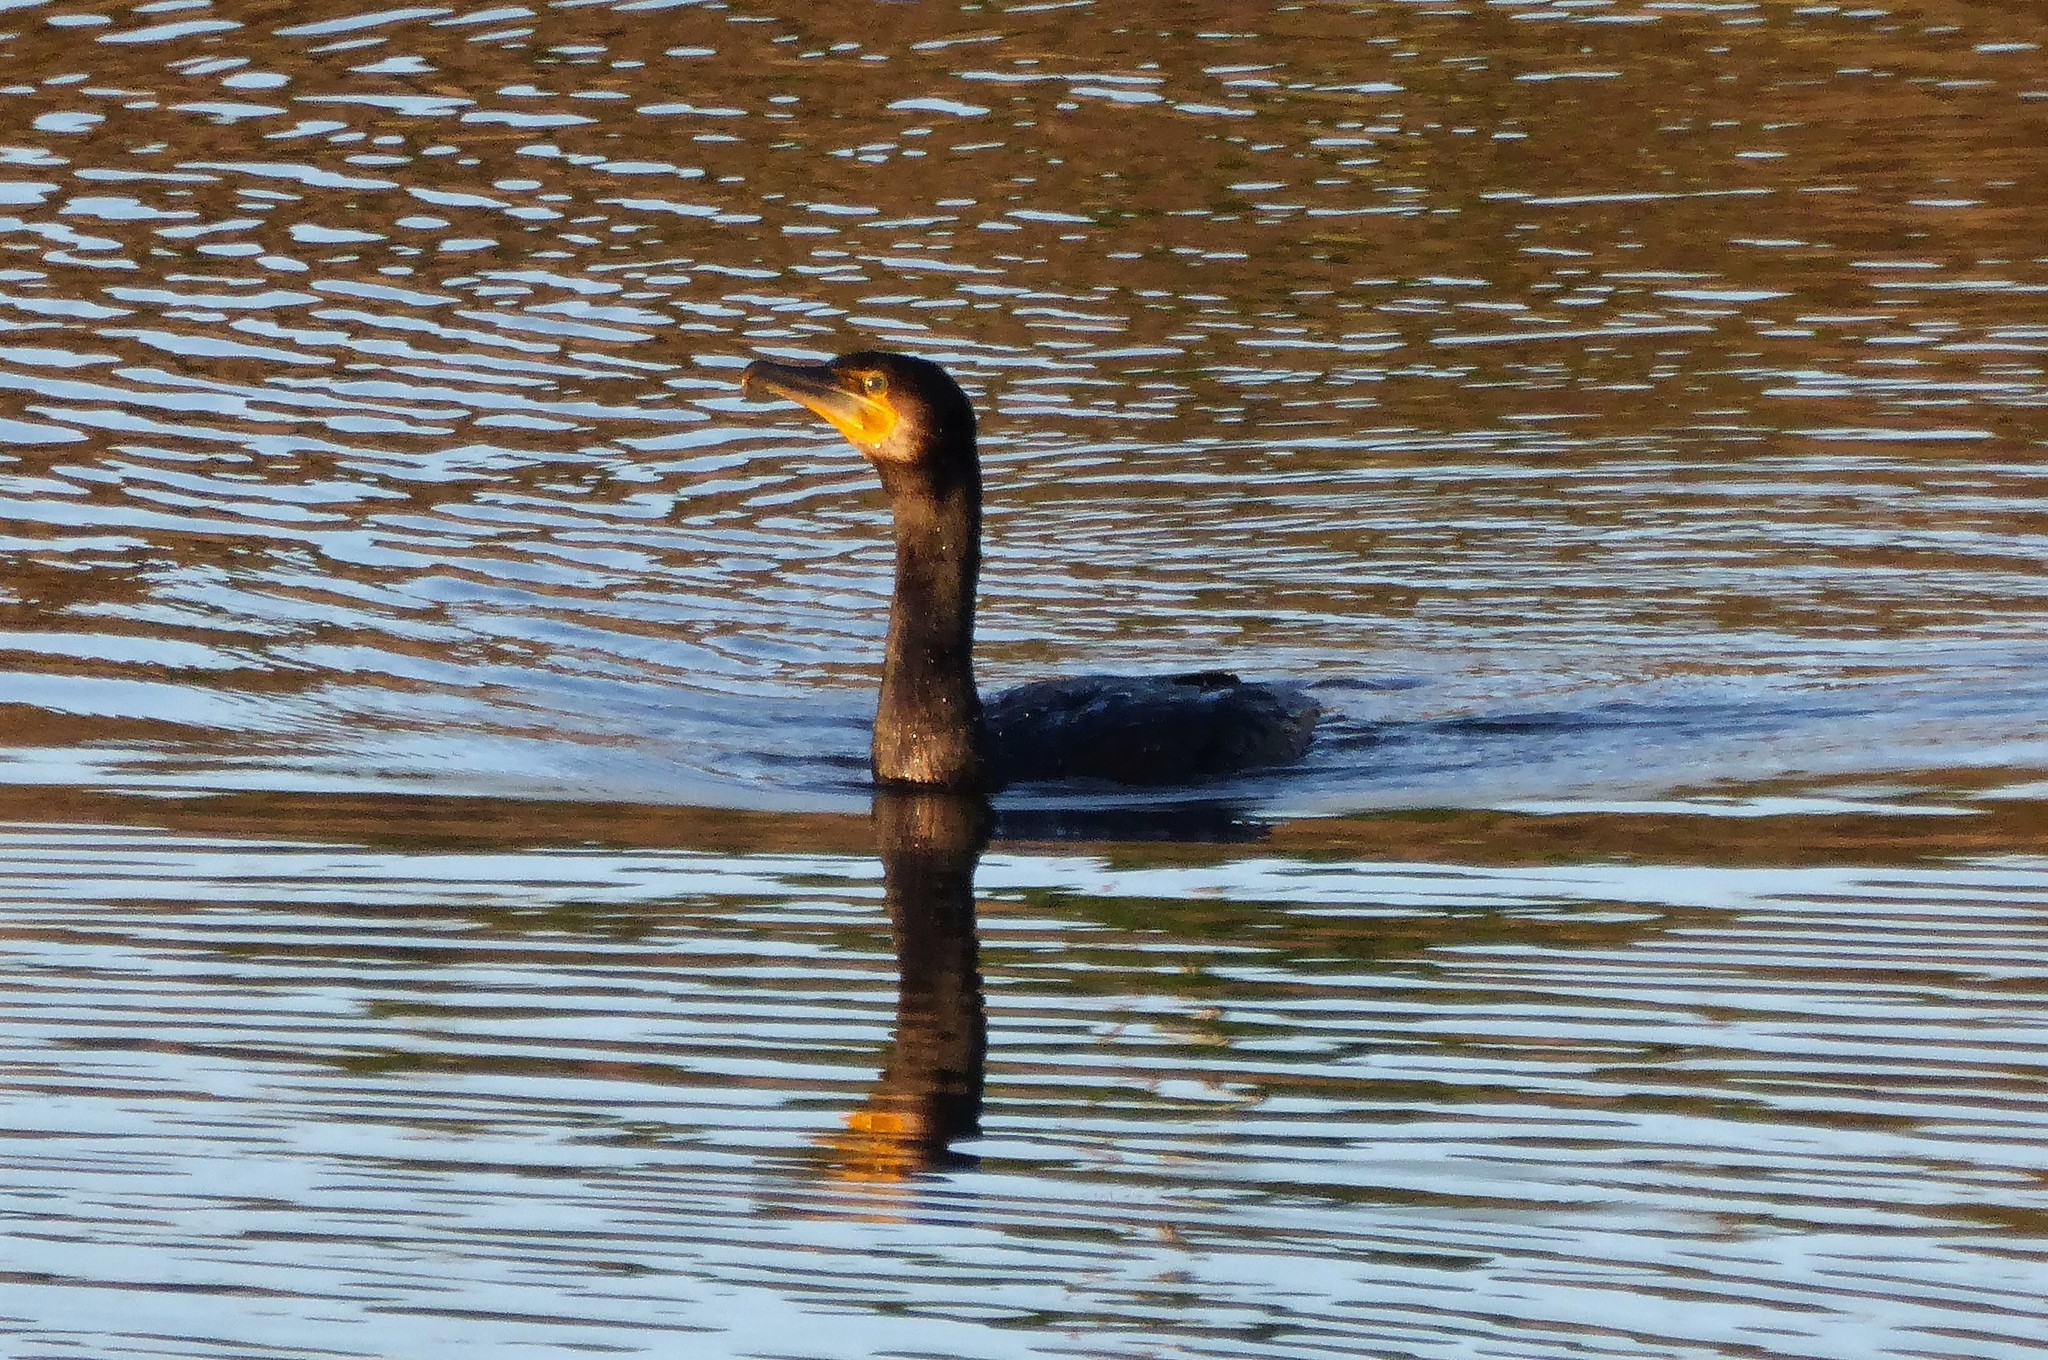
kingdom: Animalia
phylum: Chordata
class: Aves
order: Suliformes
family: Phalacrocoracidae
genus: Phalacrocorax
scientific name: Phalacrocorax carbo
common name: Great cormorant
